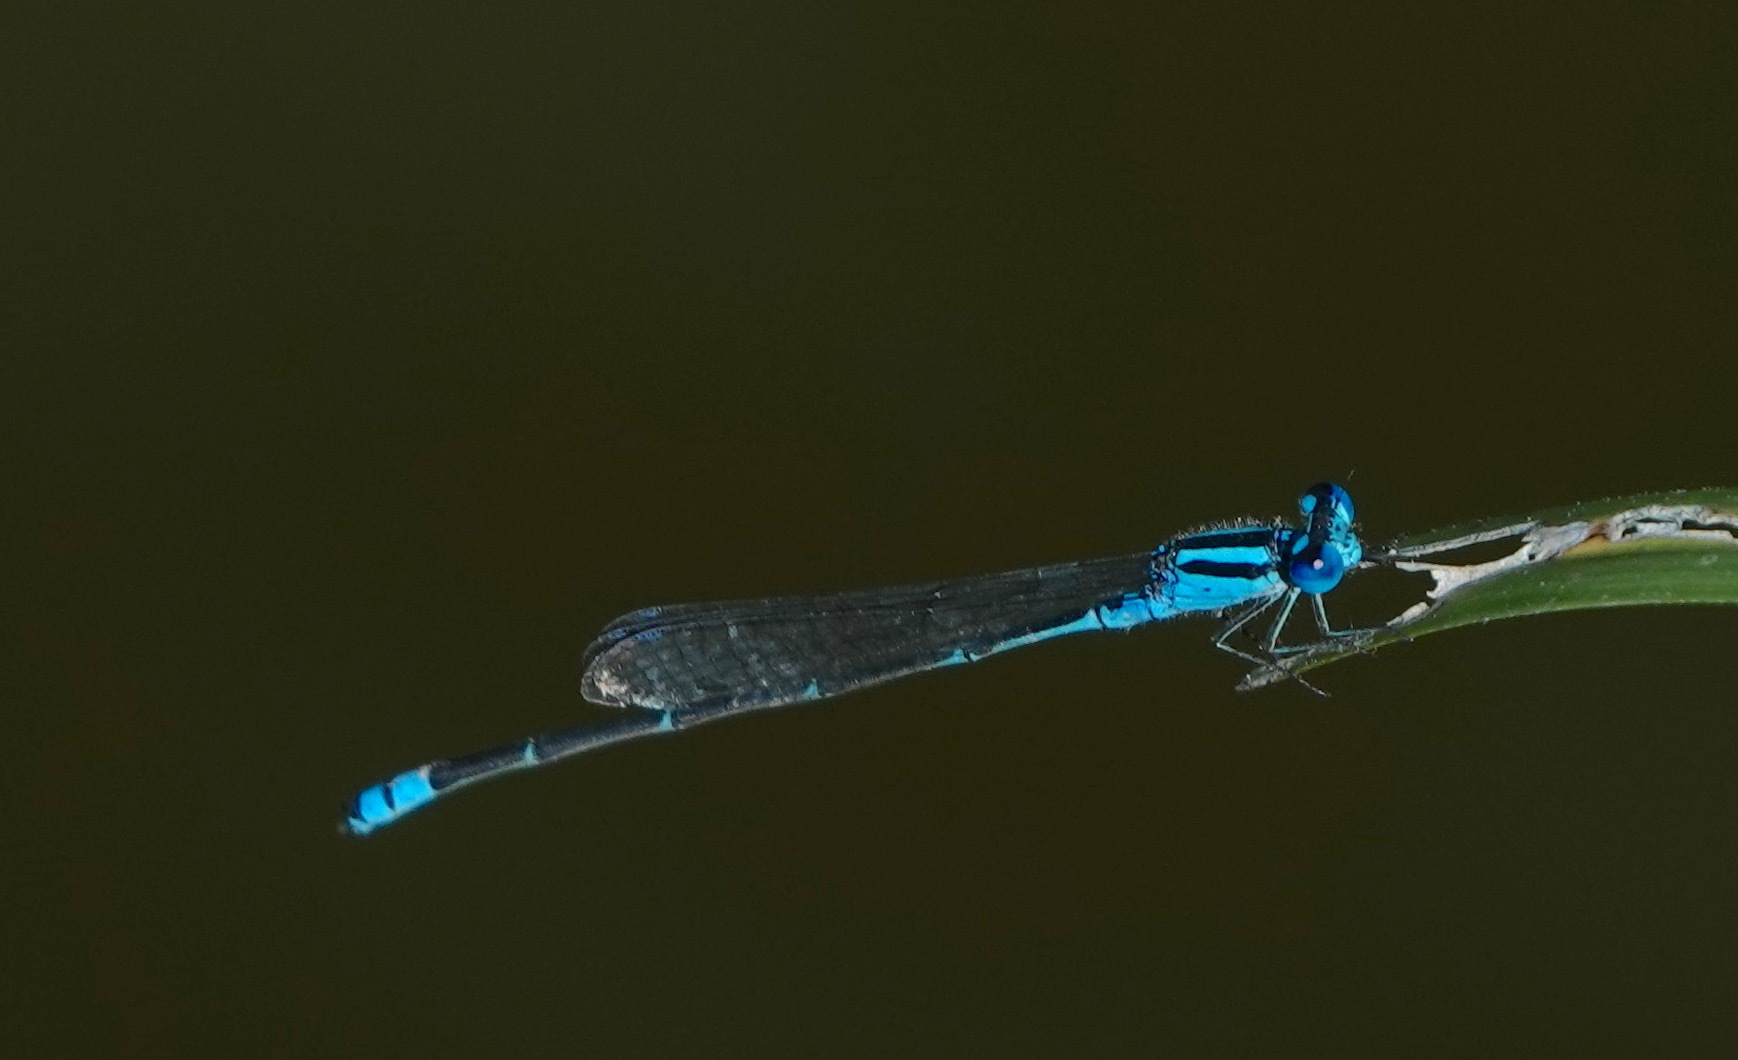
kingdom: Animalia
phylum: Arthropoda
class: Insecta
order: Odonata
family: Coenagrionidae
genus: Pseudagrion
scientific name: Pseudagrion microcephalum
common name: Blue riverdamsel
